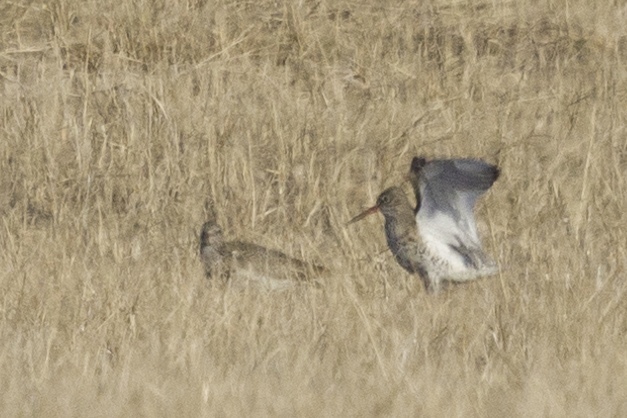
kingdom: Animalia
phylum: Chordata
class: Aves
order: Charadriiformes
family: Scolopacidae
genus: Tringa
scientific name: Tringa totanus
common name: Common redshank
